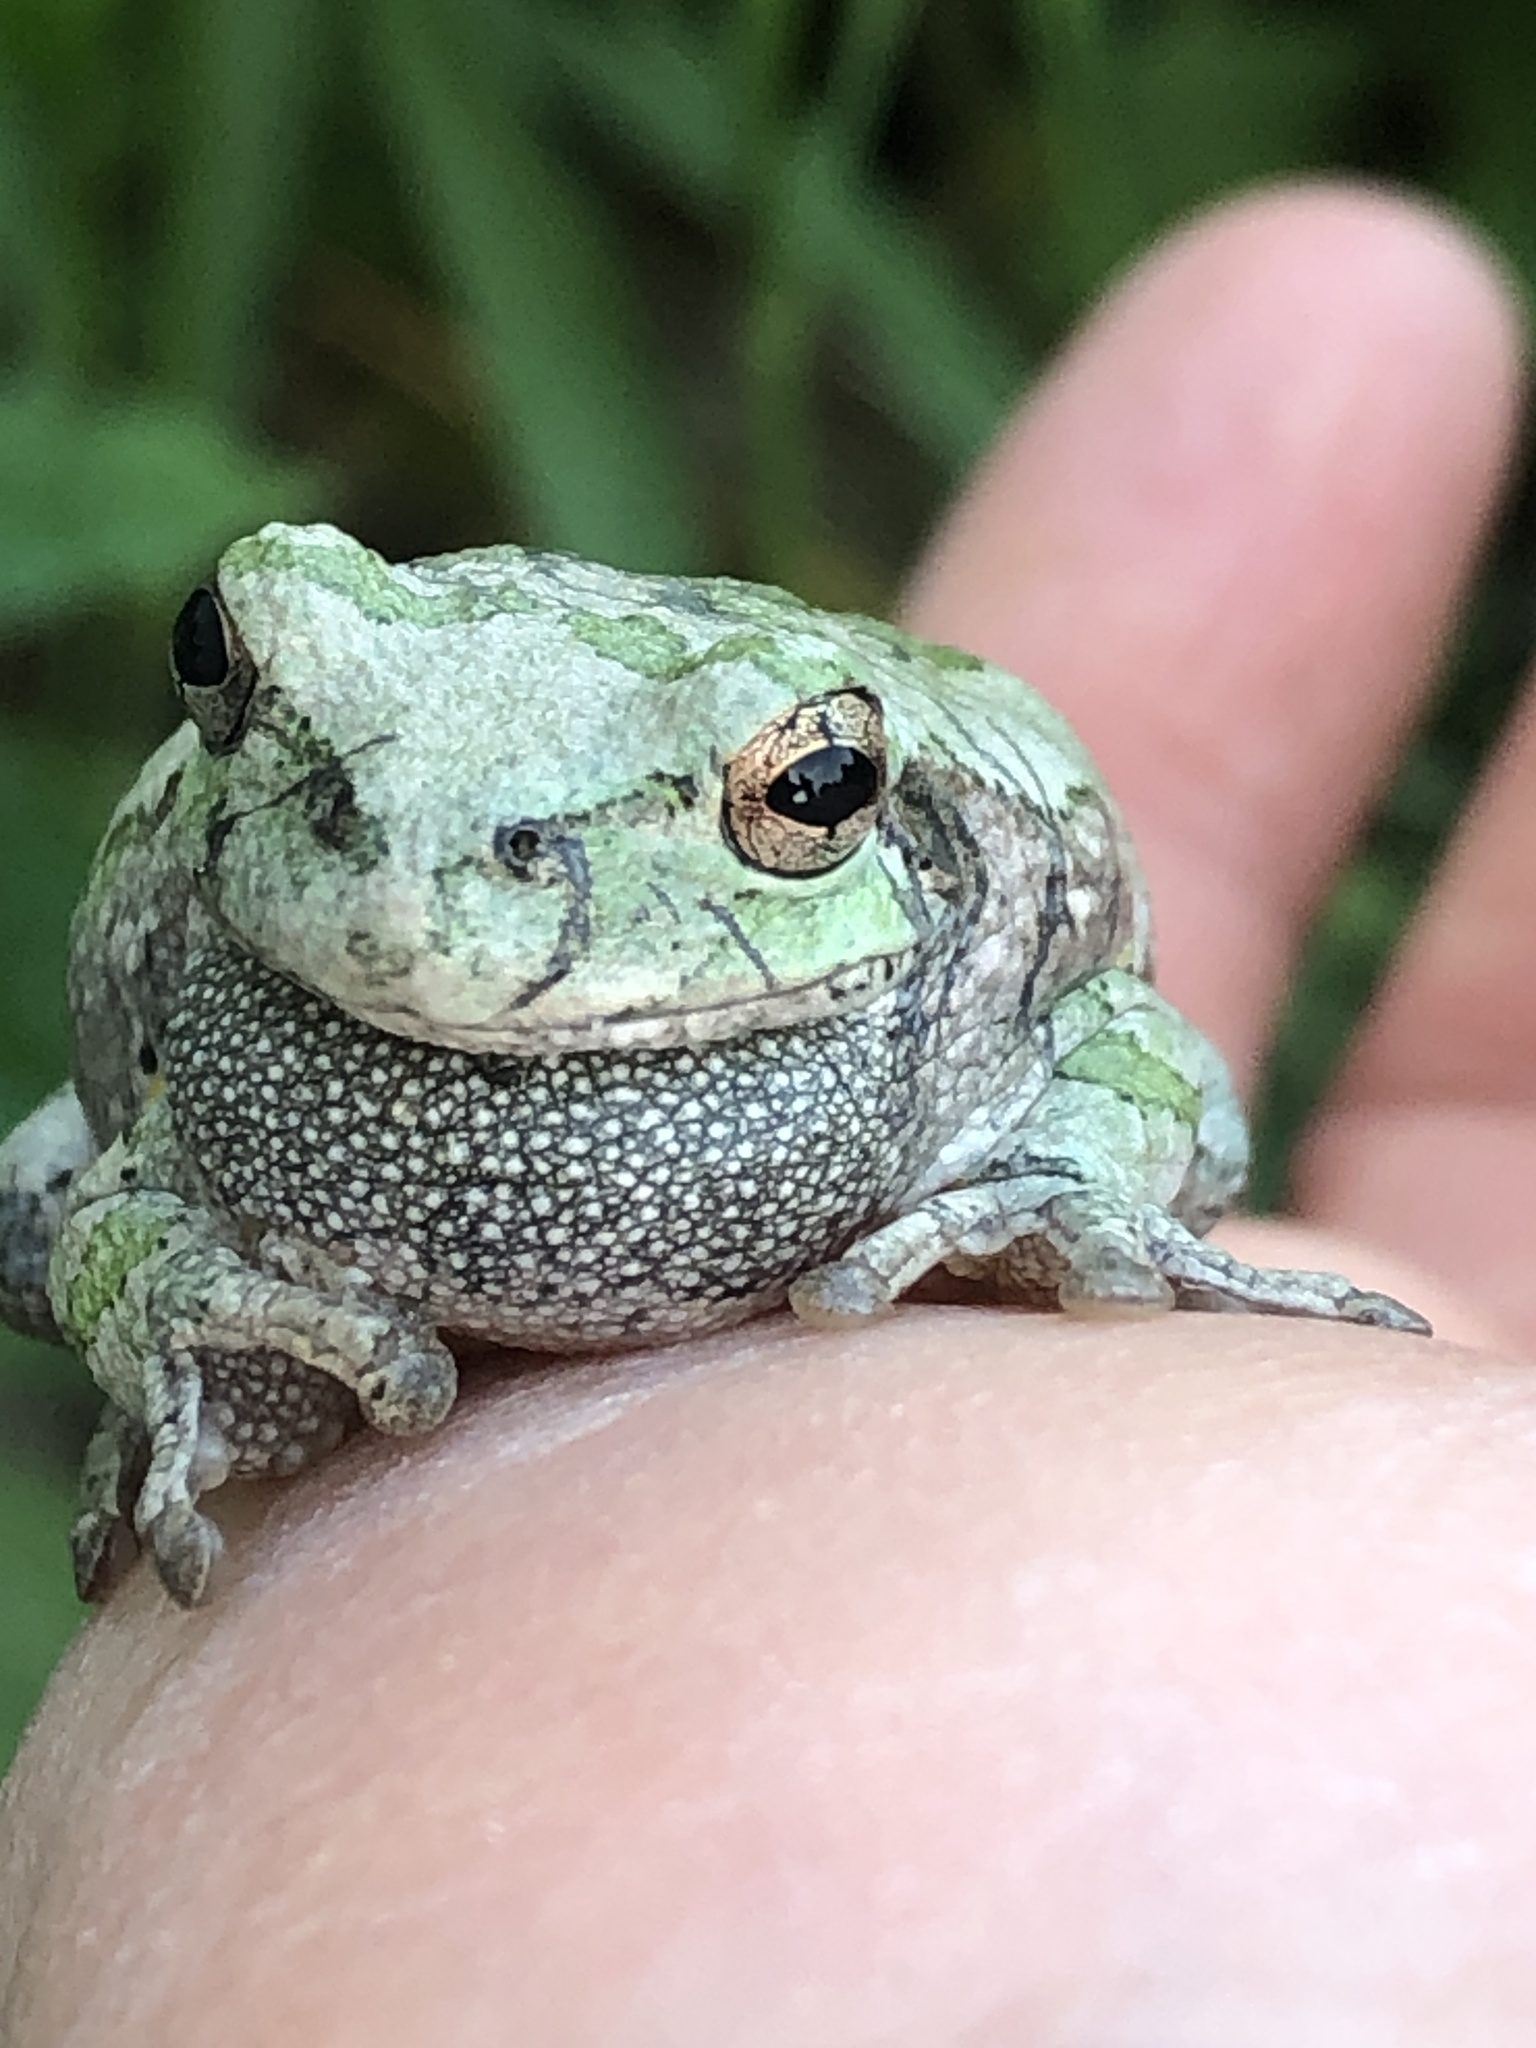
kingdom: Animalia
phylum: Chordata
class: Amphibia
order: Anura
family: Hylidae
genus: Hyla
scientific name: Hyla
